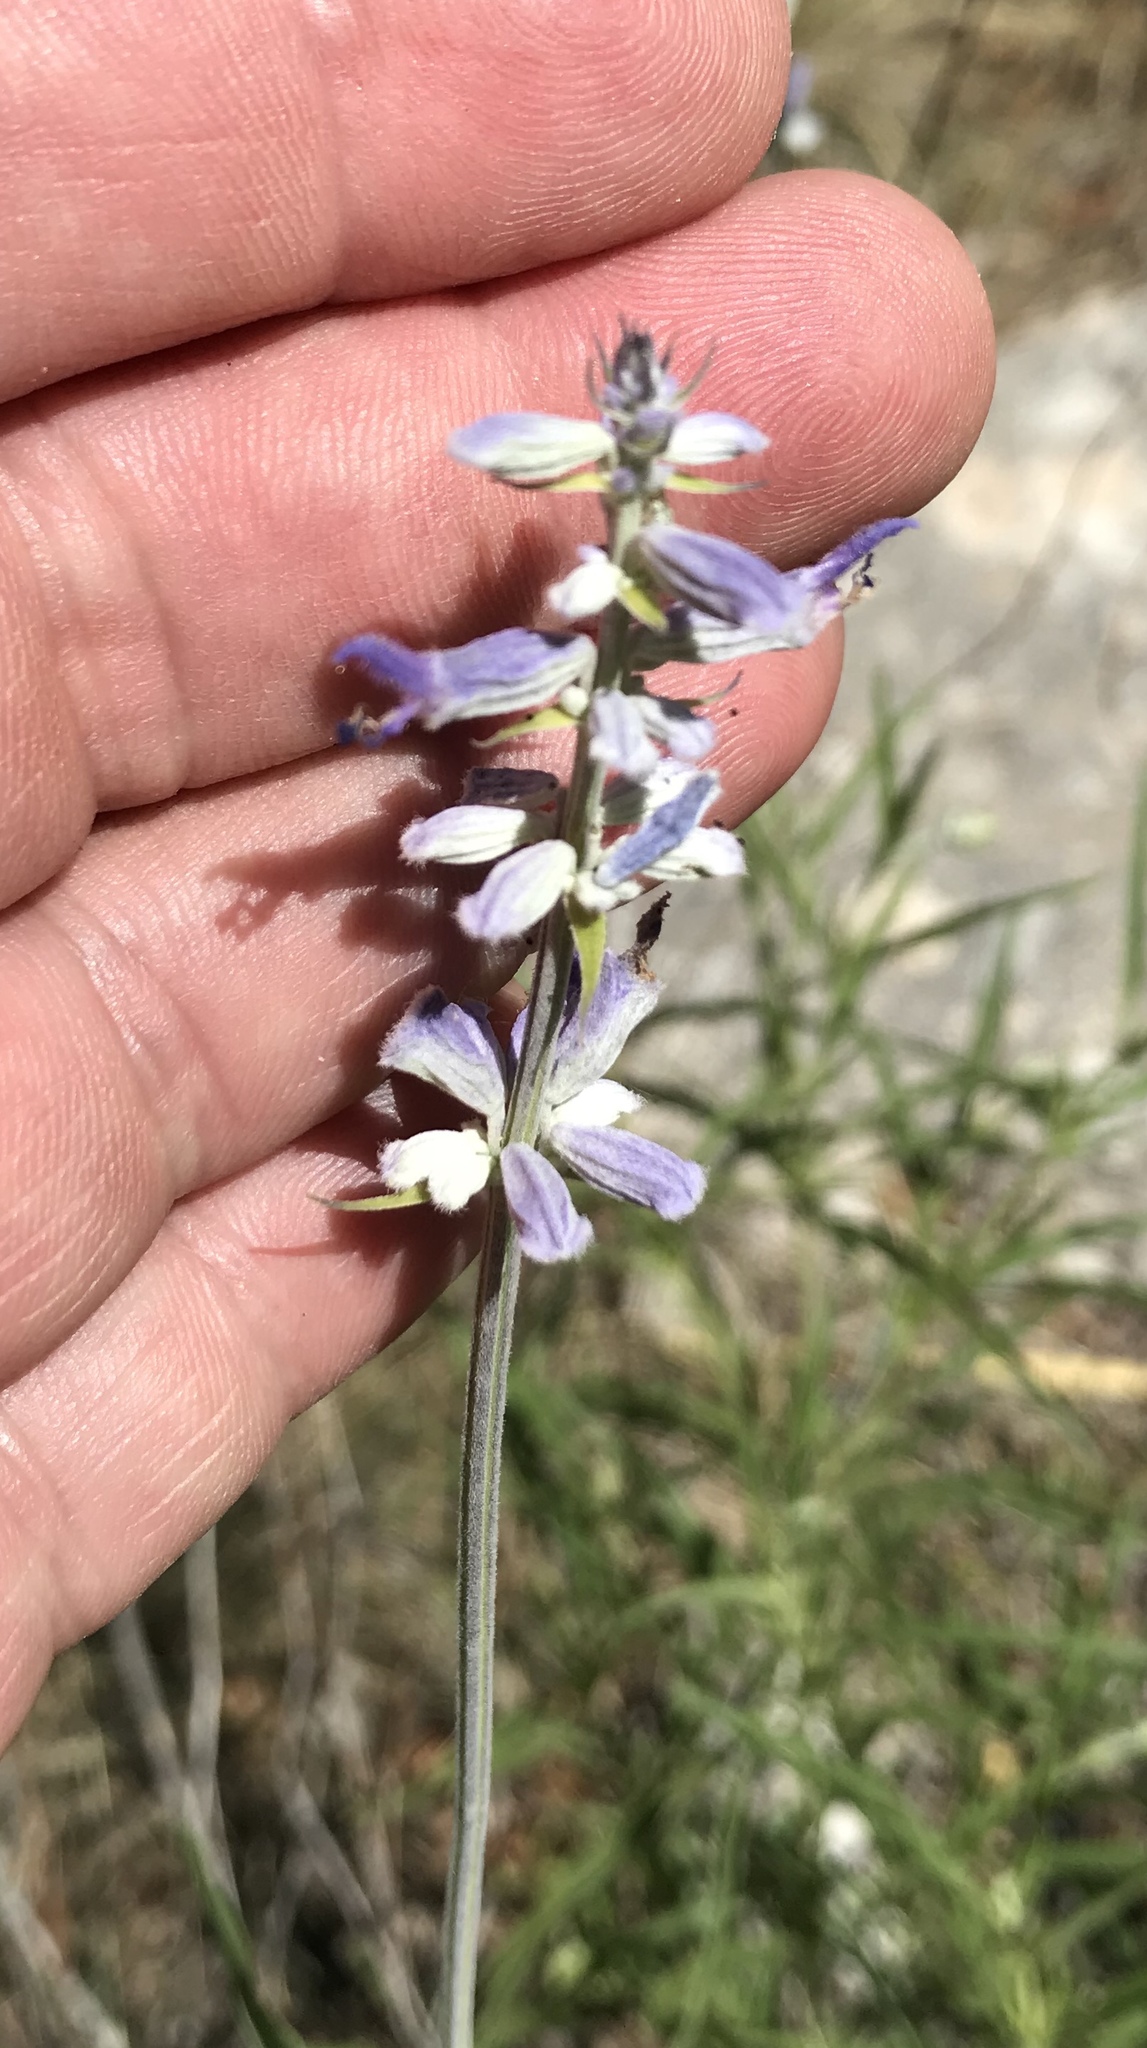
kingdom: Plantae
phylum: Tracheophyta
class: Magnoliopsida
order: Lamiales
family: Lamiaceae
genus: Salvia
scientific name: Salvia farinacea
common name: Mealy sage
